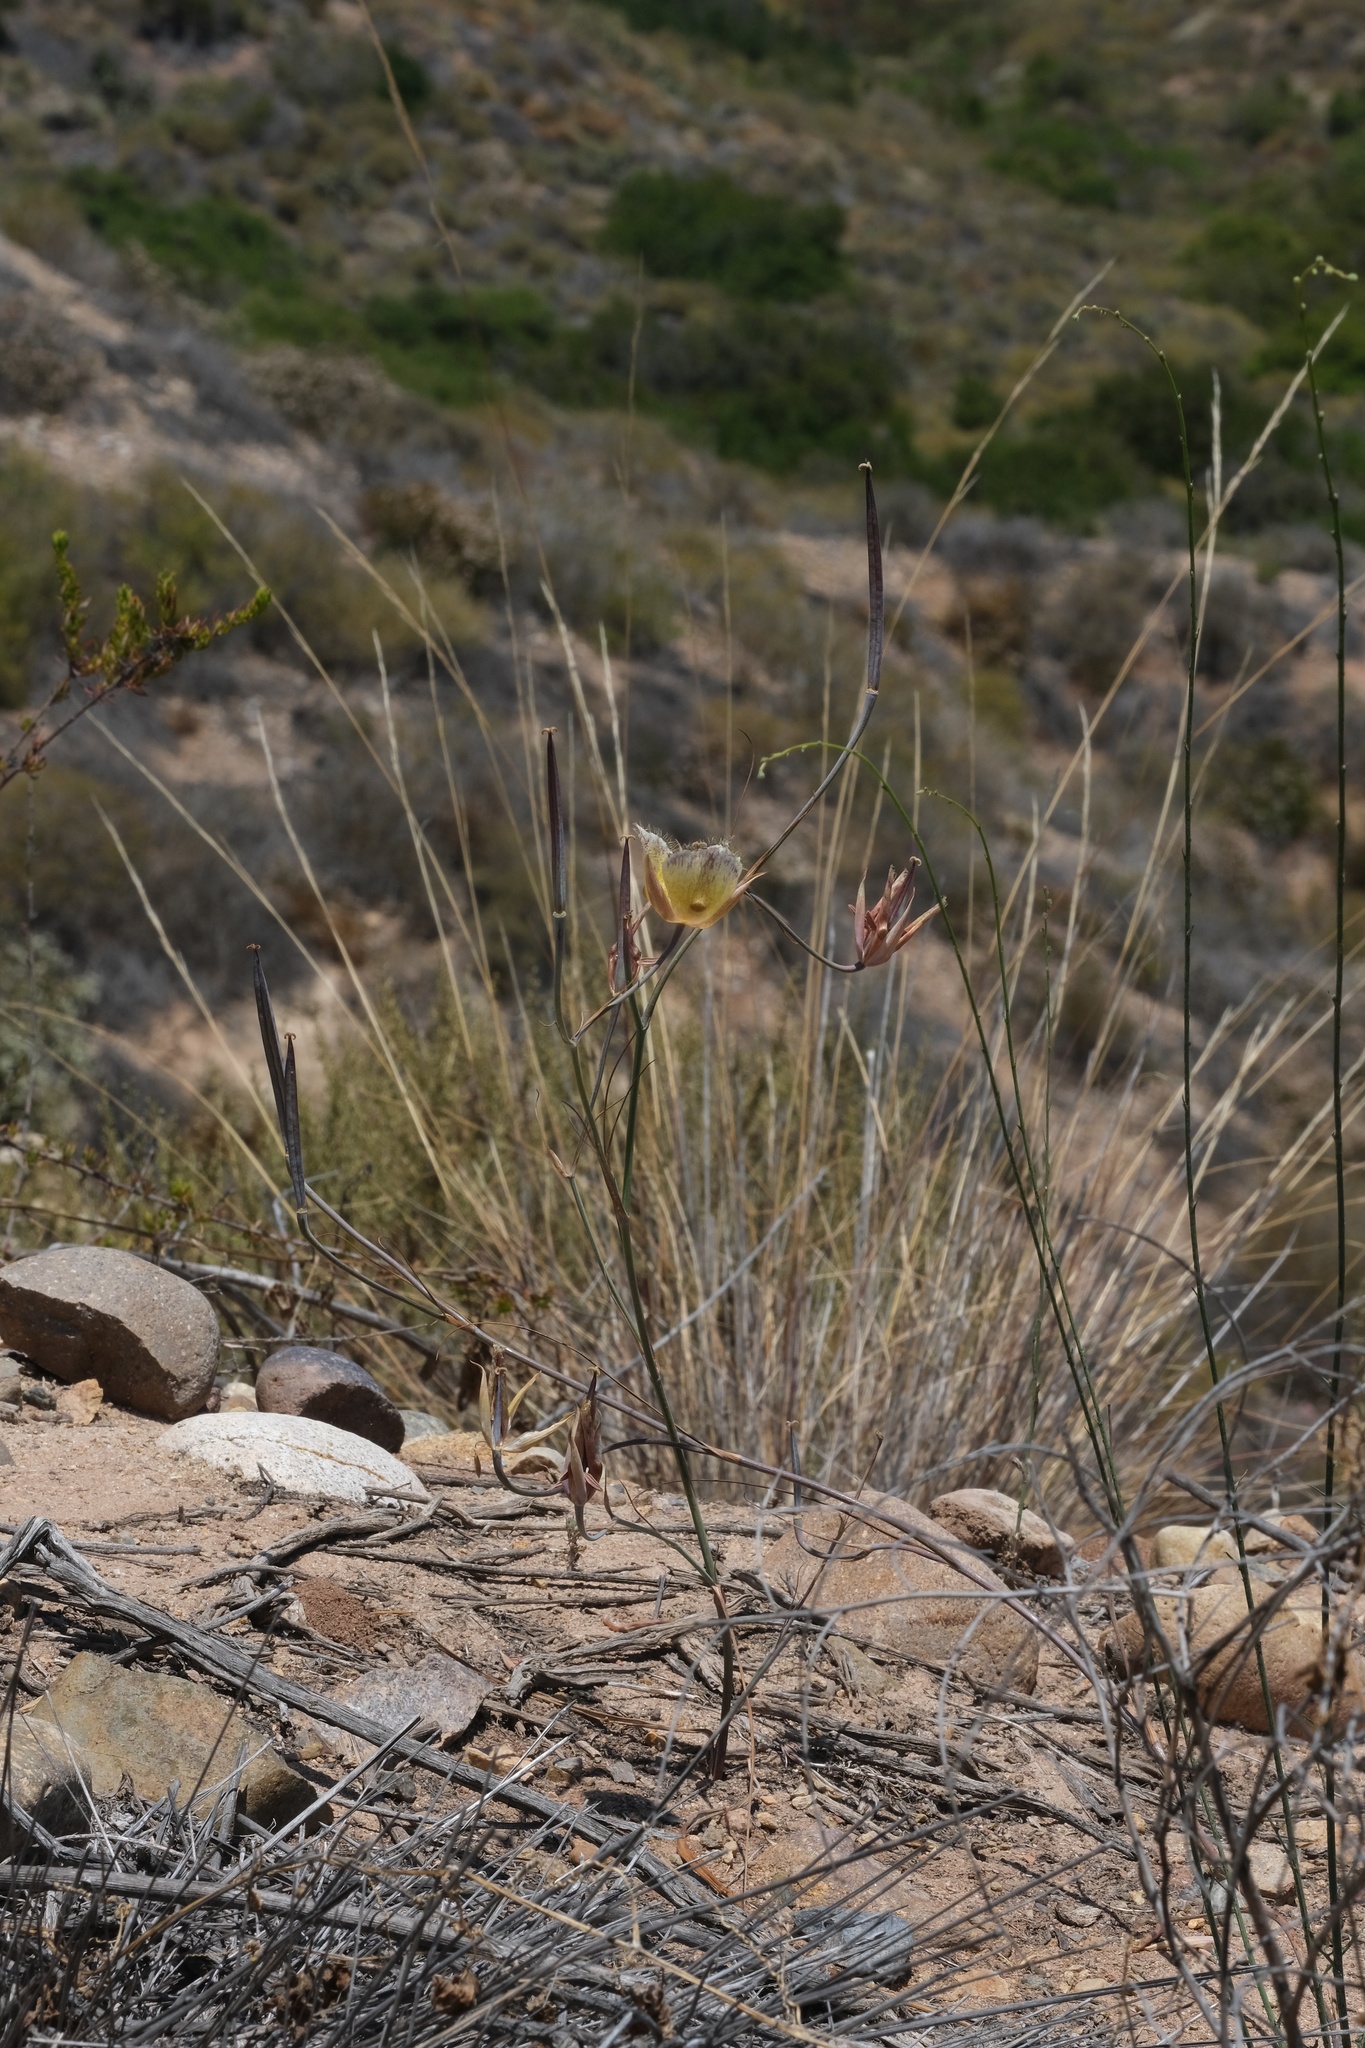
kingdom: Plantae
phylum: Tracheophyta
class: Liliopsida
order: Liliales
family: Liliaceae
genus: Calochortus
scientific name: Calochortus weedii
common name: Weed's mariposa-lily
